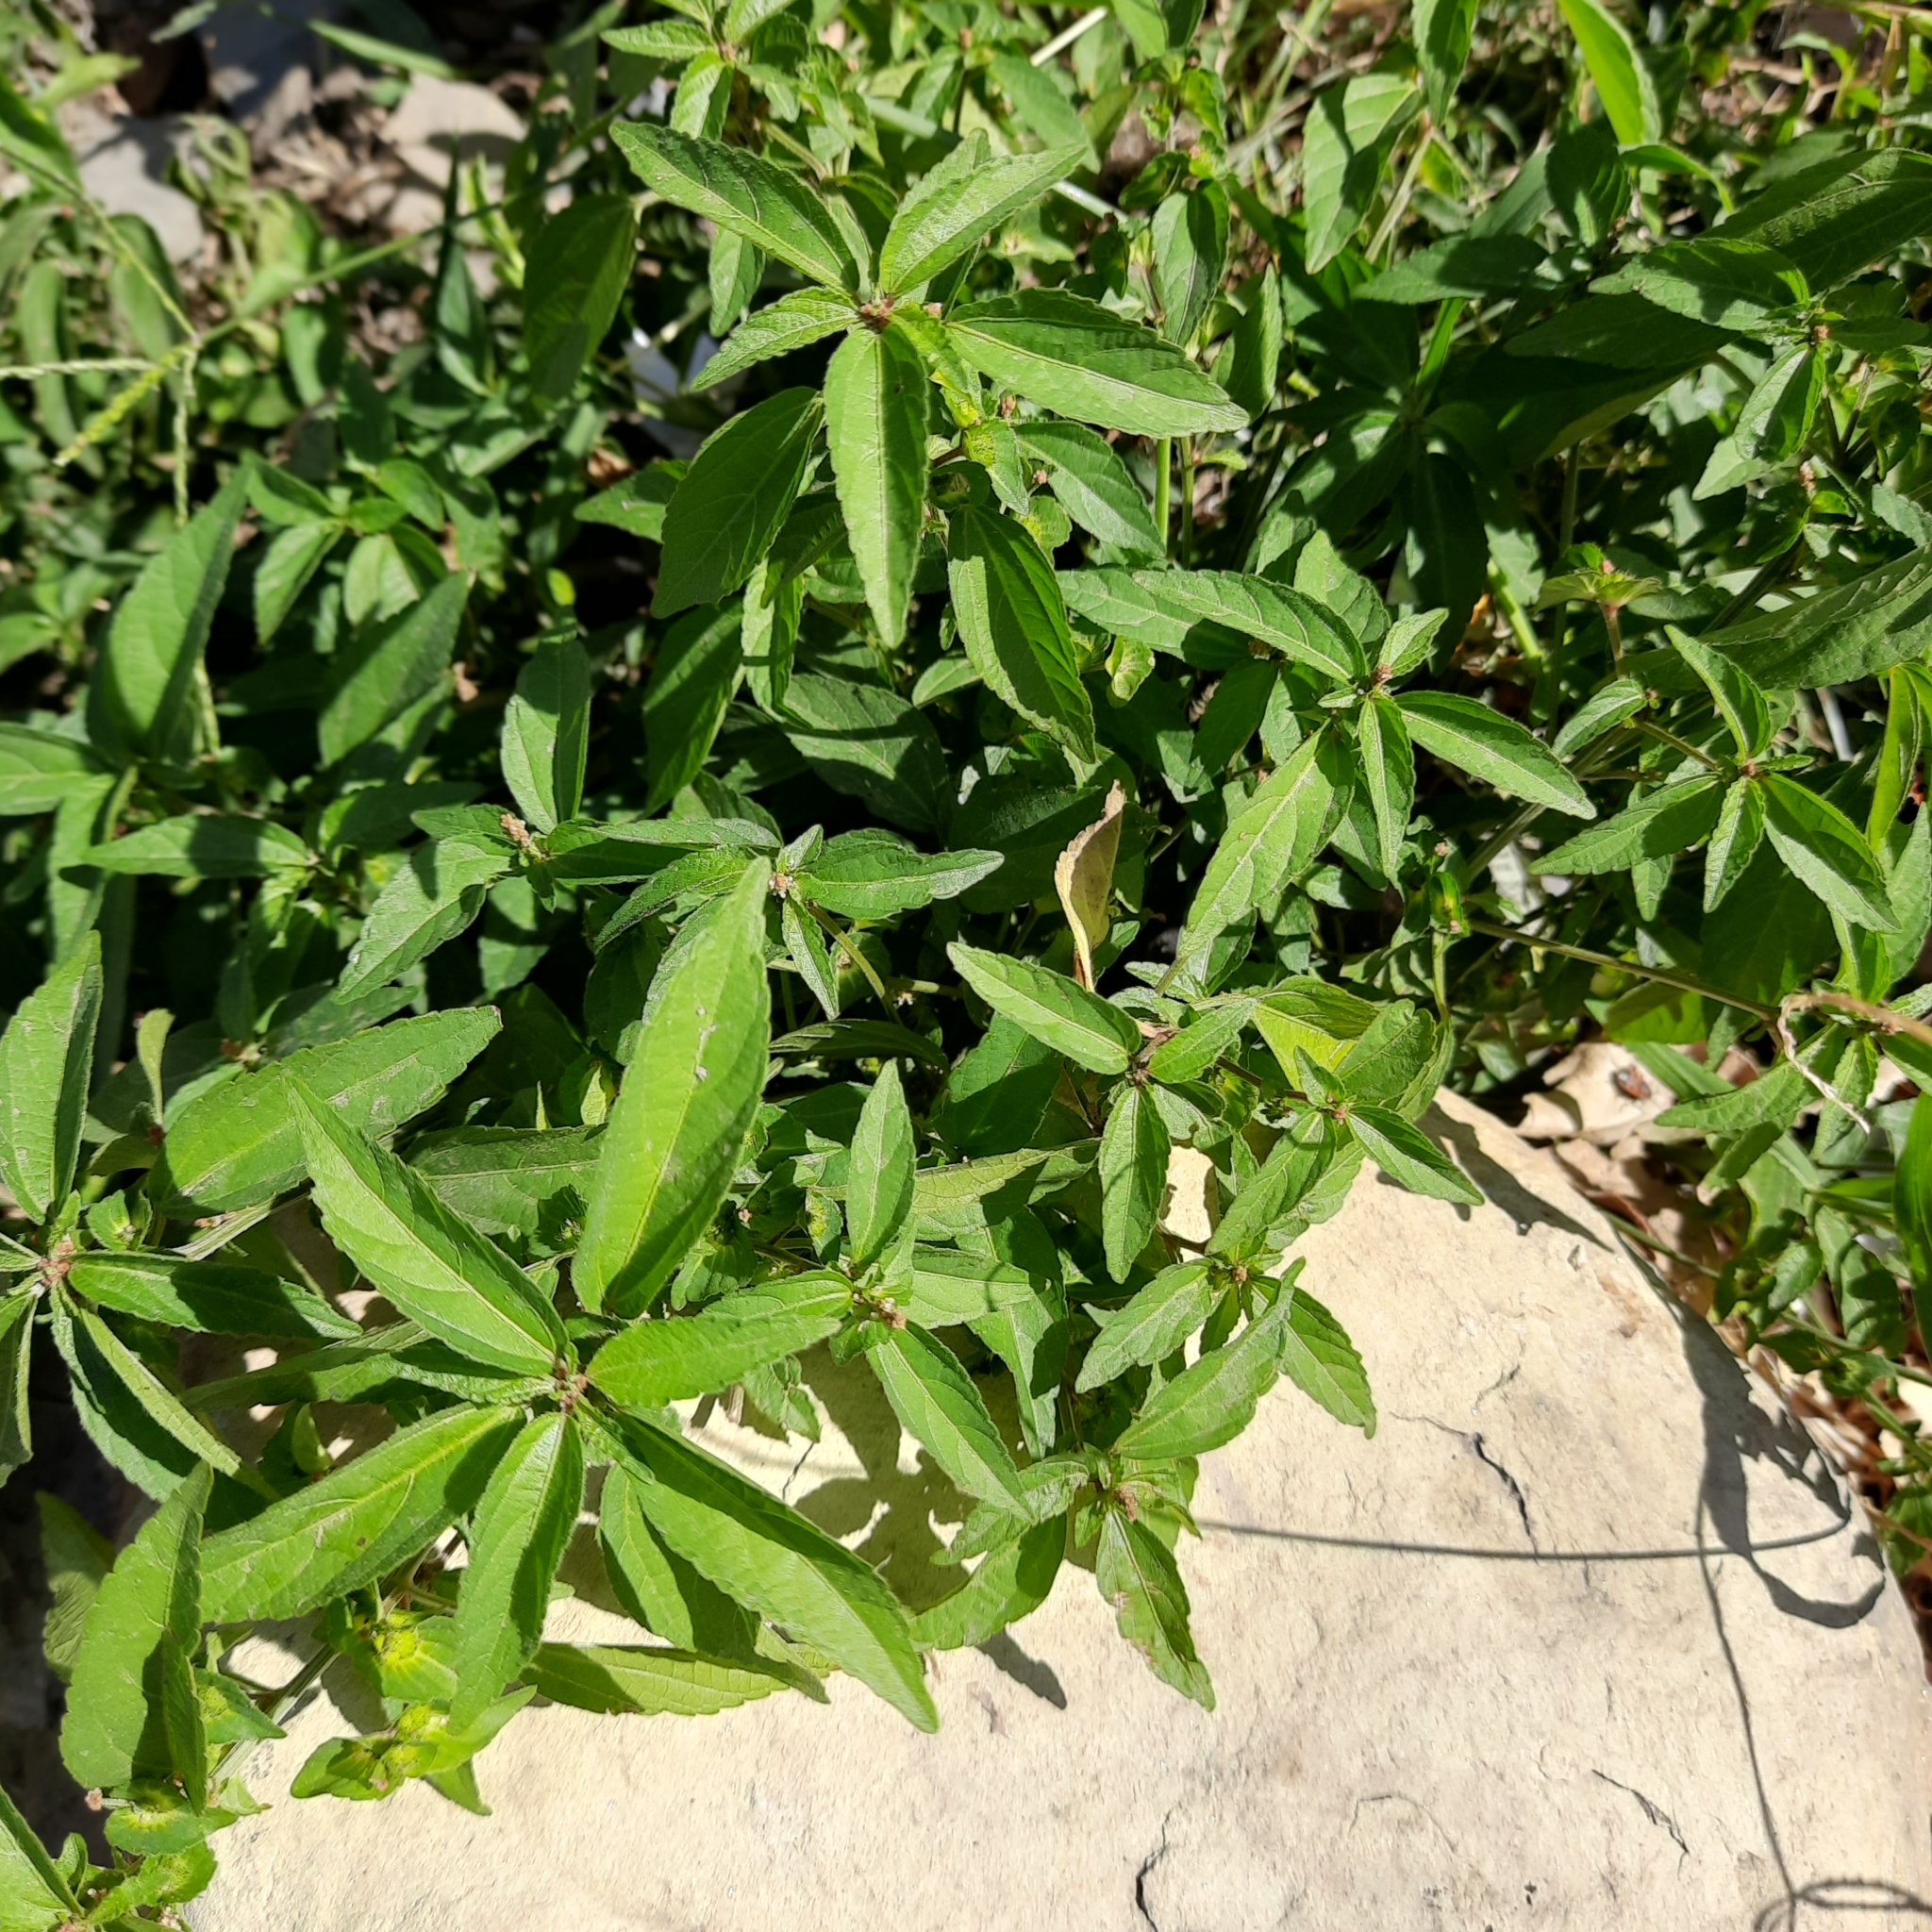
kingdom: Plantae
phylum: Tracheophyta
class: Magnoliopsida
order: Malpighiales
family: Euphorbiaceae
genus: Acalypha
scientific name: Acalypha australis
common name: Asian copperleaf
